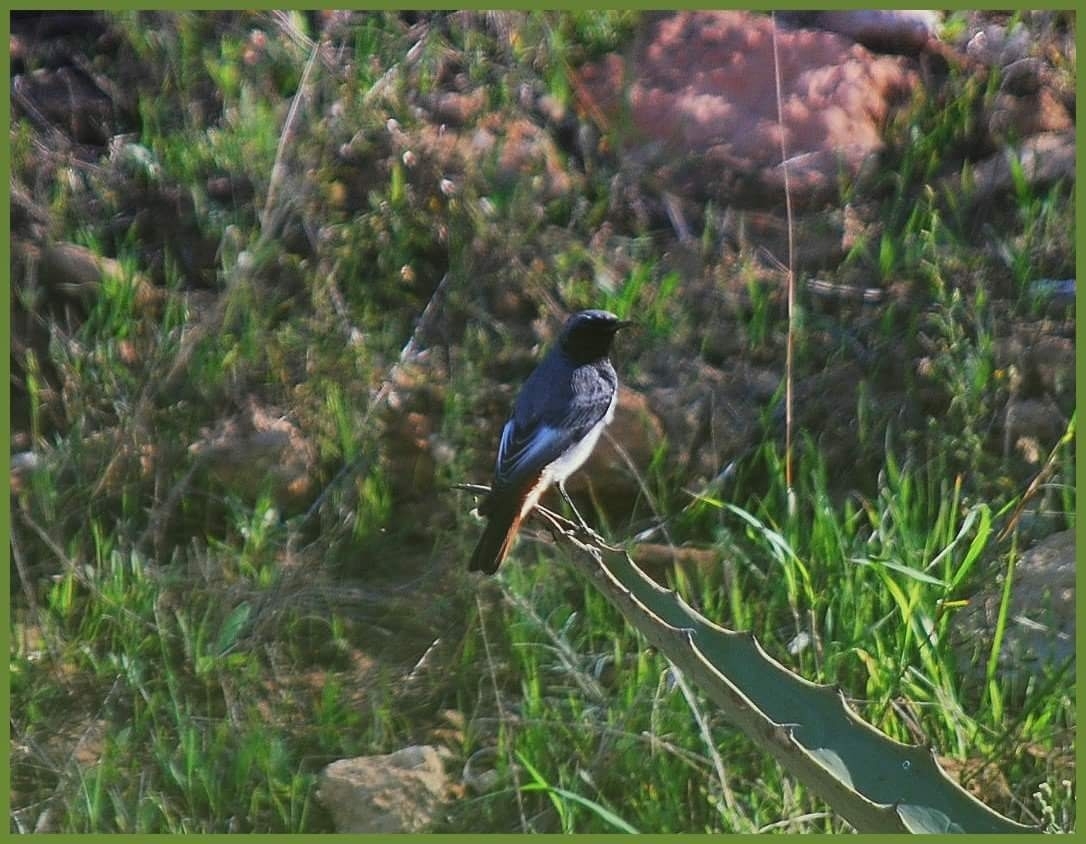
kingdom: Animalia
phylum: Chordata
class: Aves
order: Passeriformes
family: Muscicapidae
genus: Phoenicurus
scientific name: Phoenicurus ochruros
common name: Black redstart
